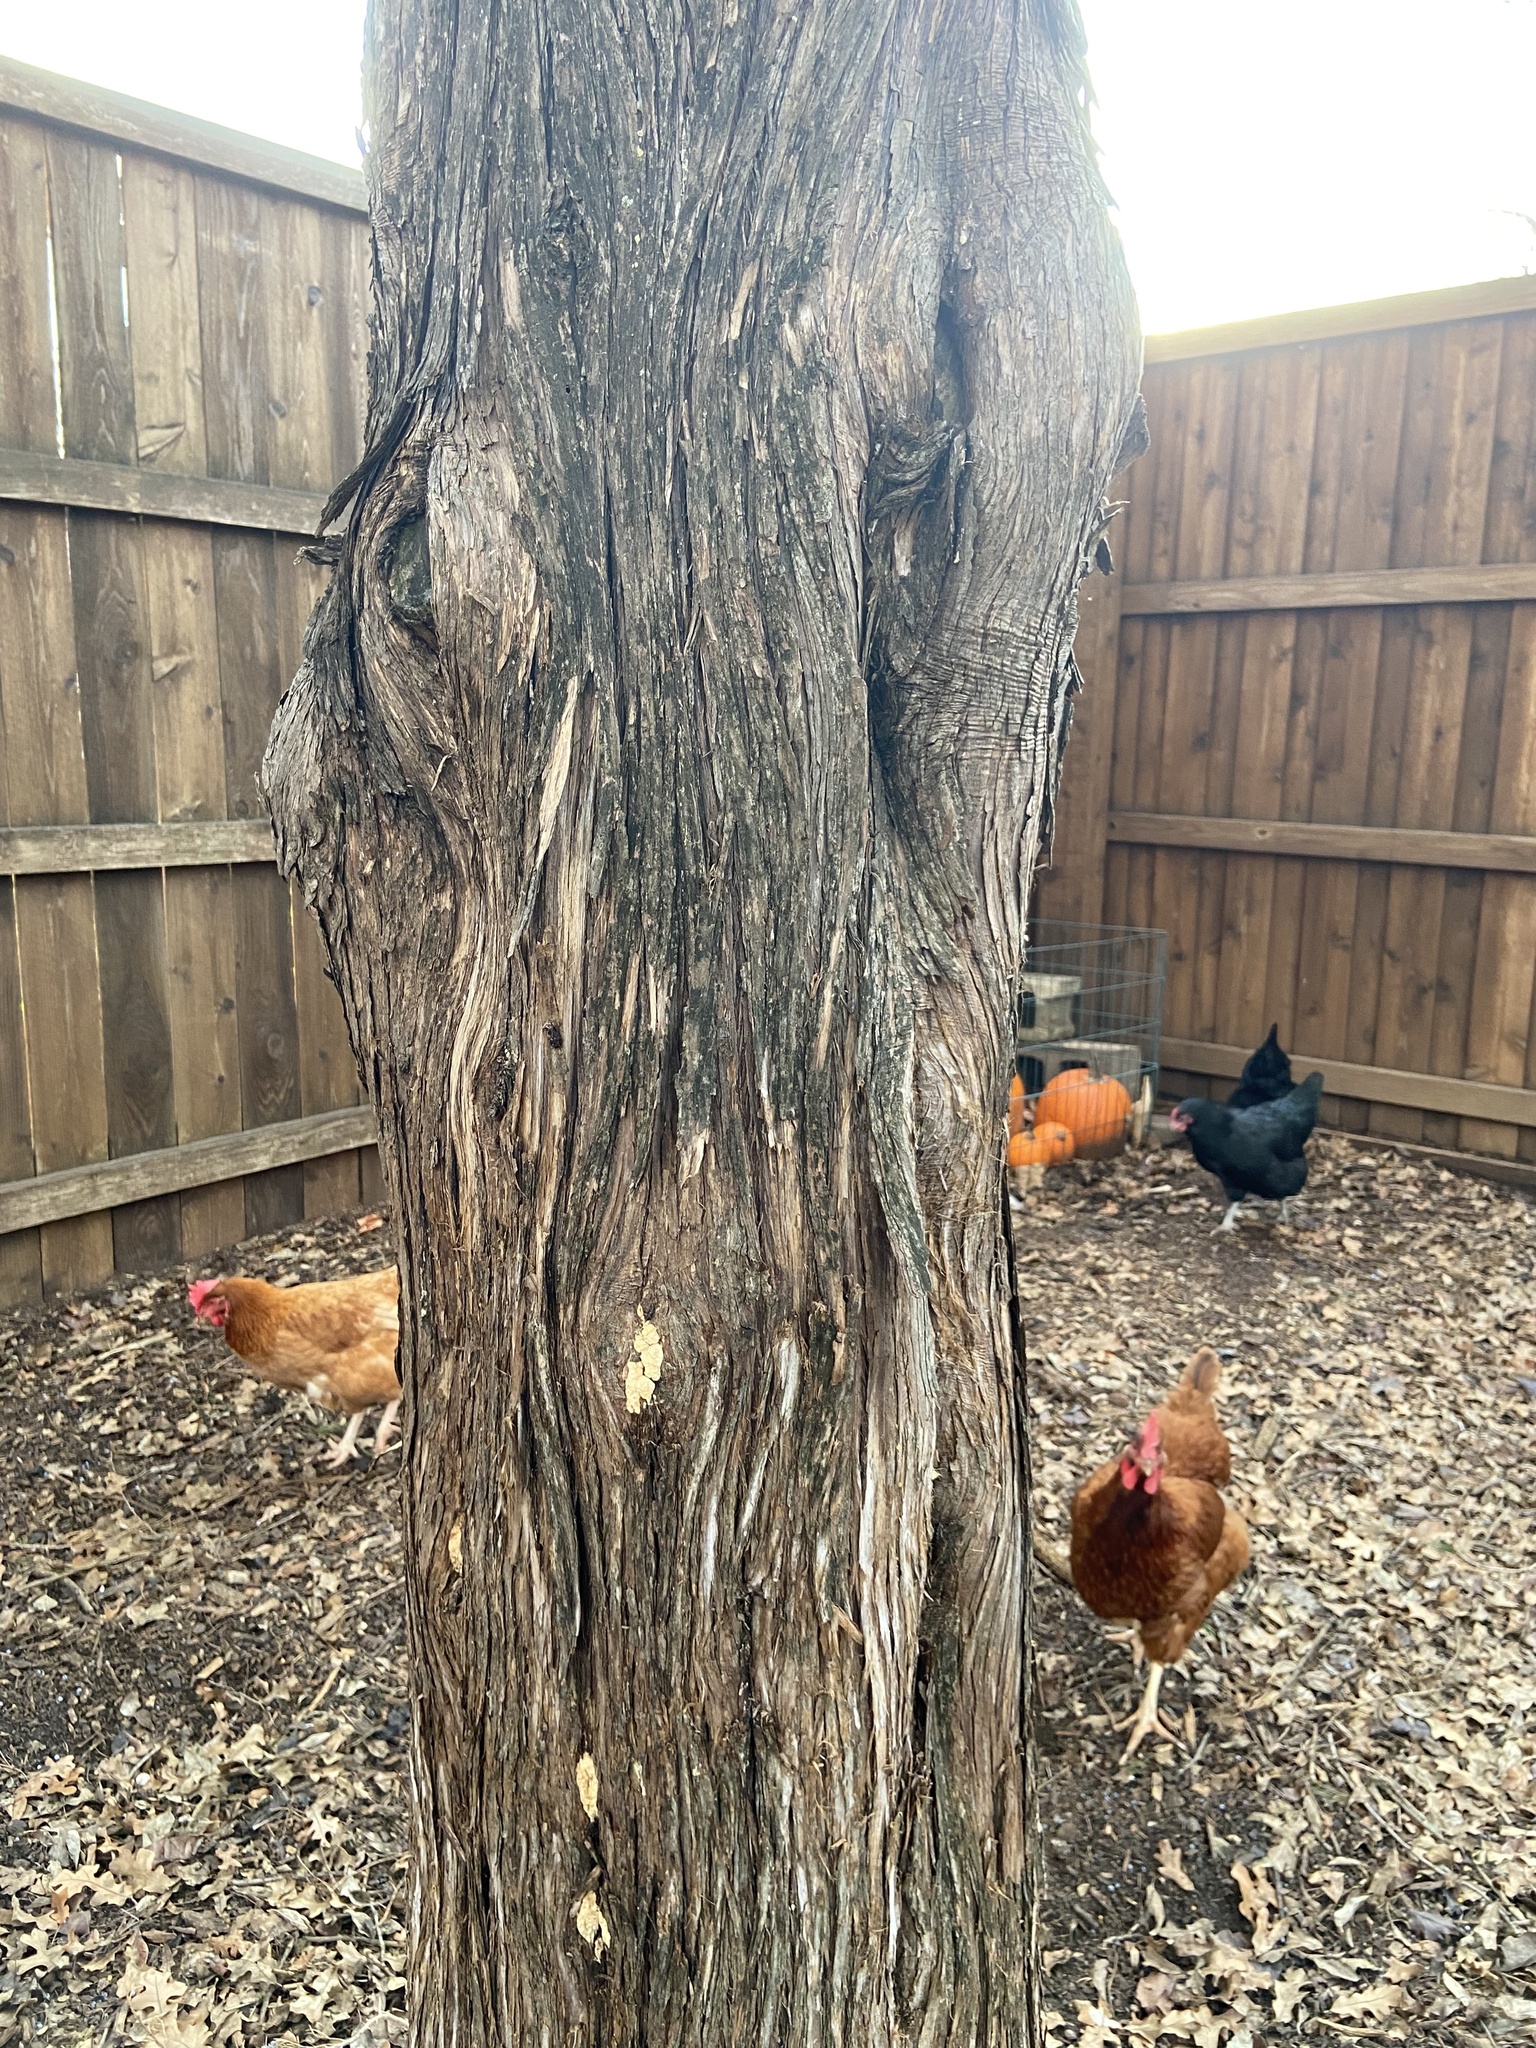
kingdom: Plantae
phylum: Tracheophyta
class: Pinopsida
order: Pinales
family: Cupressaceae
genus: Juniperus
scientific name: Juniperus virginiana
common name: Red juniper
